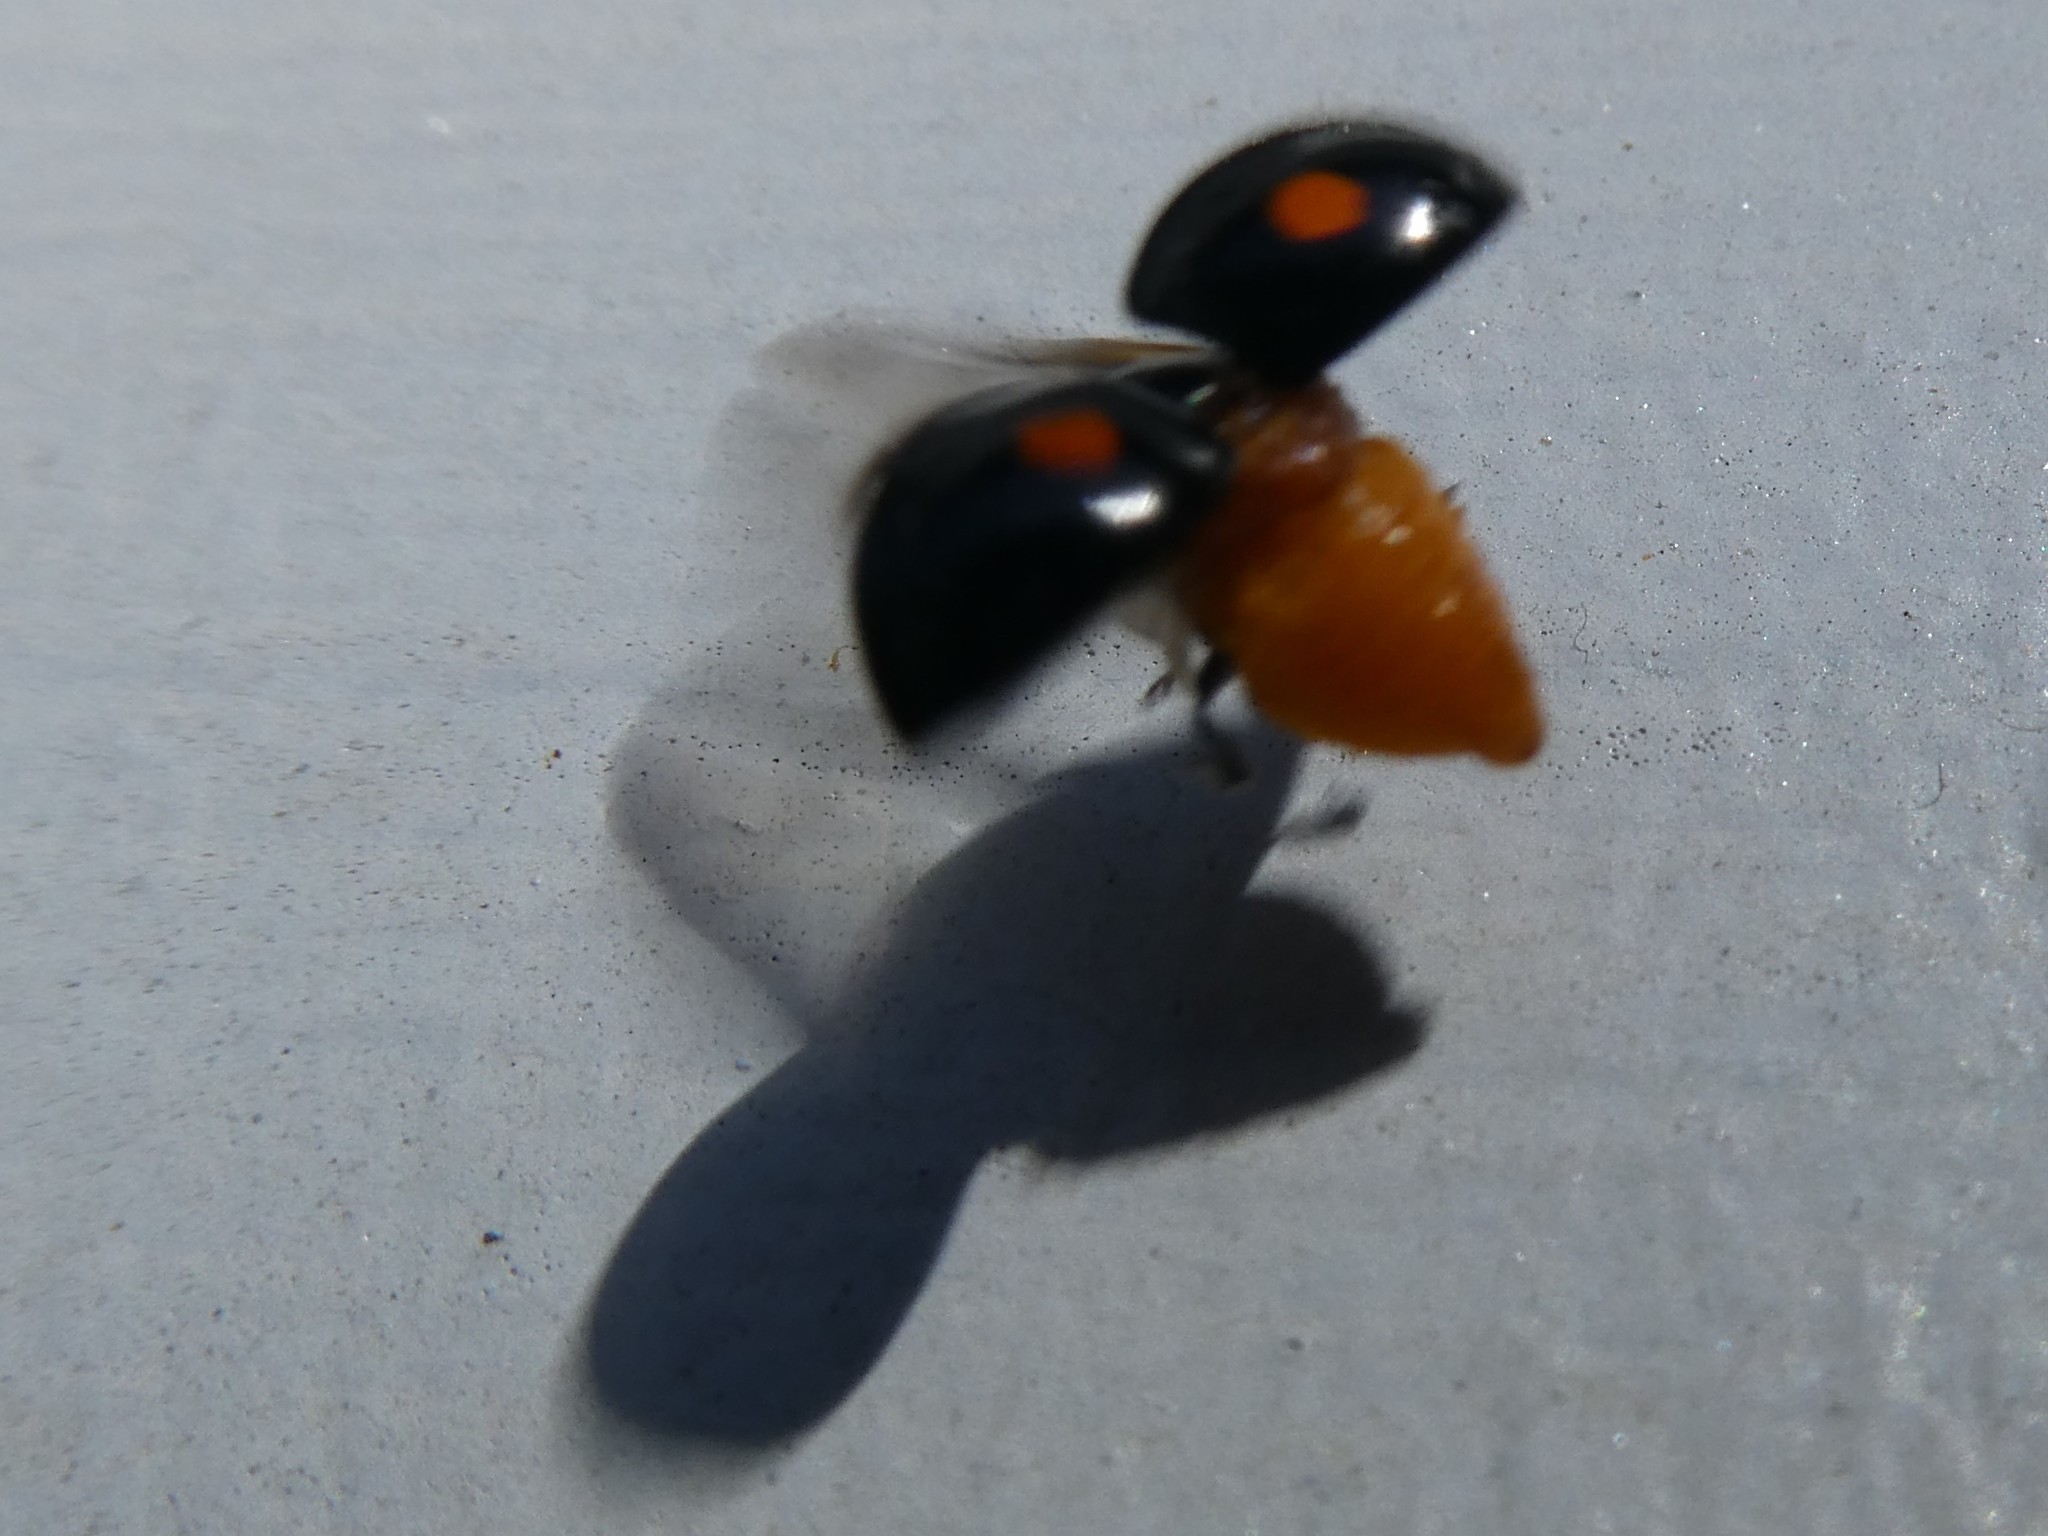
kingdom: Animalia
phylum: Arthropoda
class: Insecta
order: Coleoptera
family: Coccinellidae
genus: Chilocorus
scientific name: Chilocorus stigma
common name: Twicestabbed lady beetle
